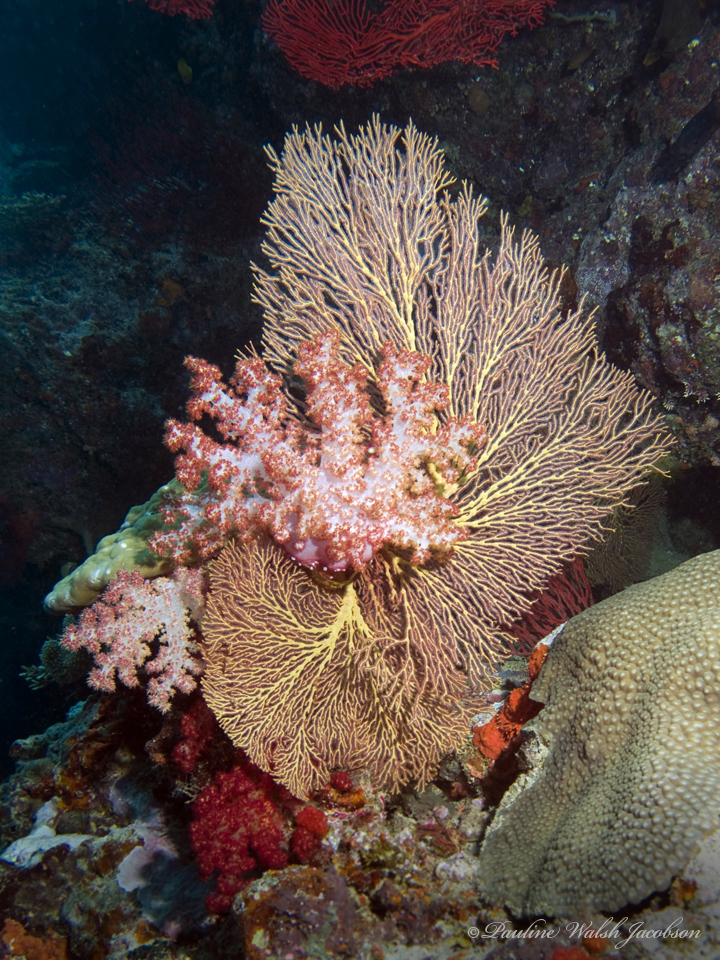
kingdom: Animalia
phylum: Cnidaria
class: Anthozoa
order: Malacalcyonacea
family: Melithaeidae
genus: Melithaea
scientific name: Melithaea ochracea
